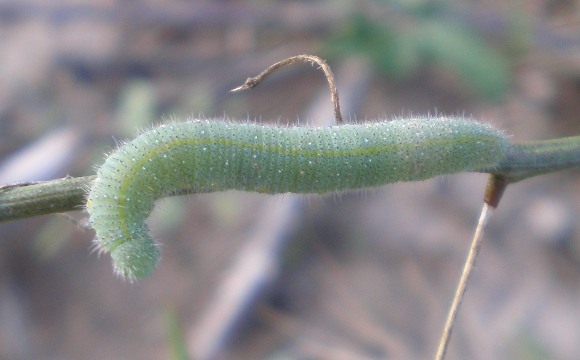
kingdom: Animalia
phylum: Arthropoda
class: Insecta
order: Lepidoptera
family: Pieridae
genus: Pieris
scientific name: Pieris rapae
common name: Small white
